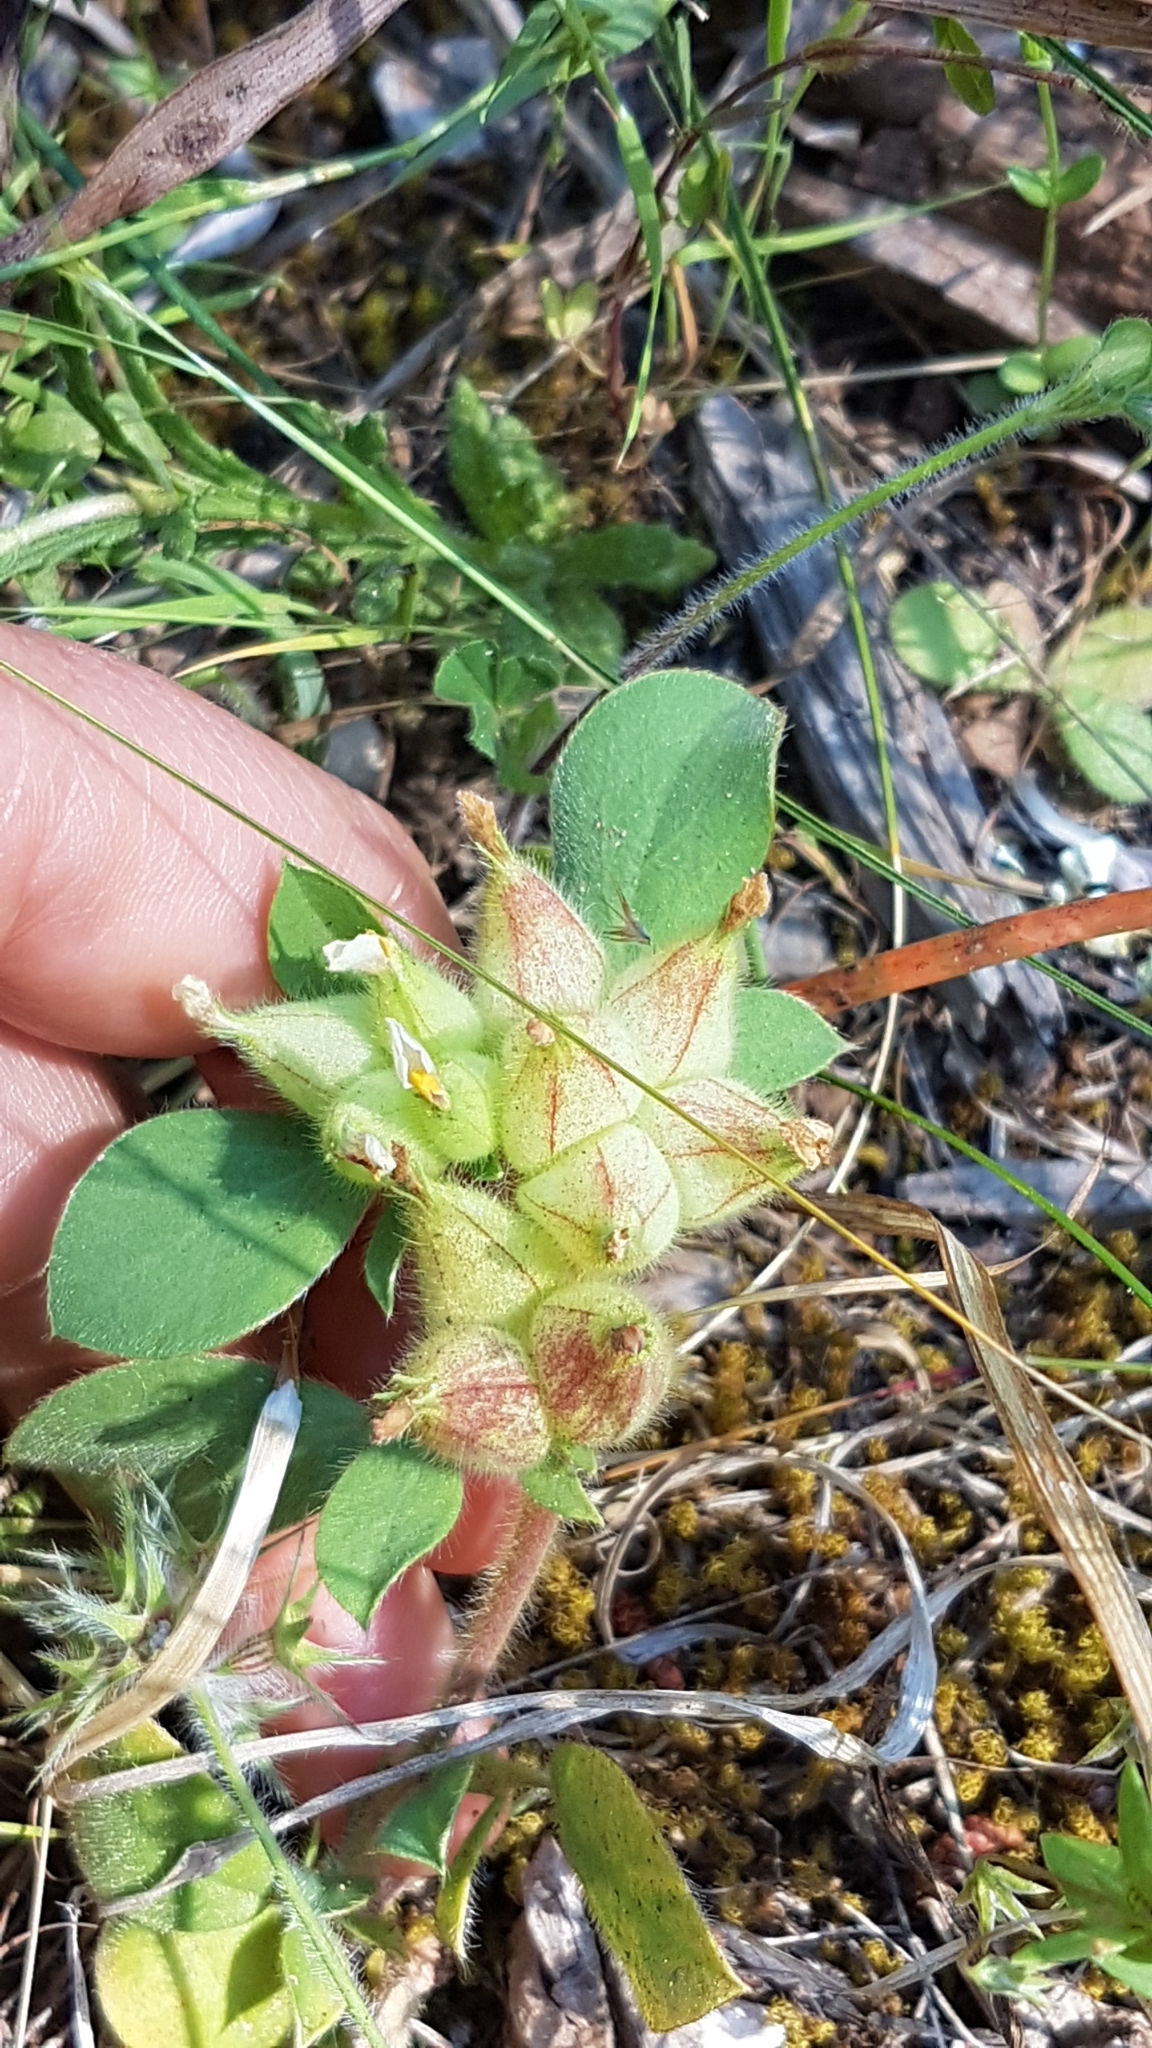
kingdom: Plantae
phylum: Tracheophyta
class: Magnoliopsida
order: Fabales
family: Fabaceae
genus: Tripodion
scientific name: Tripodion tetraphyllum
